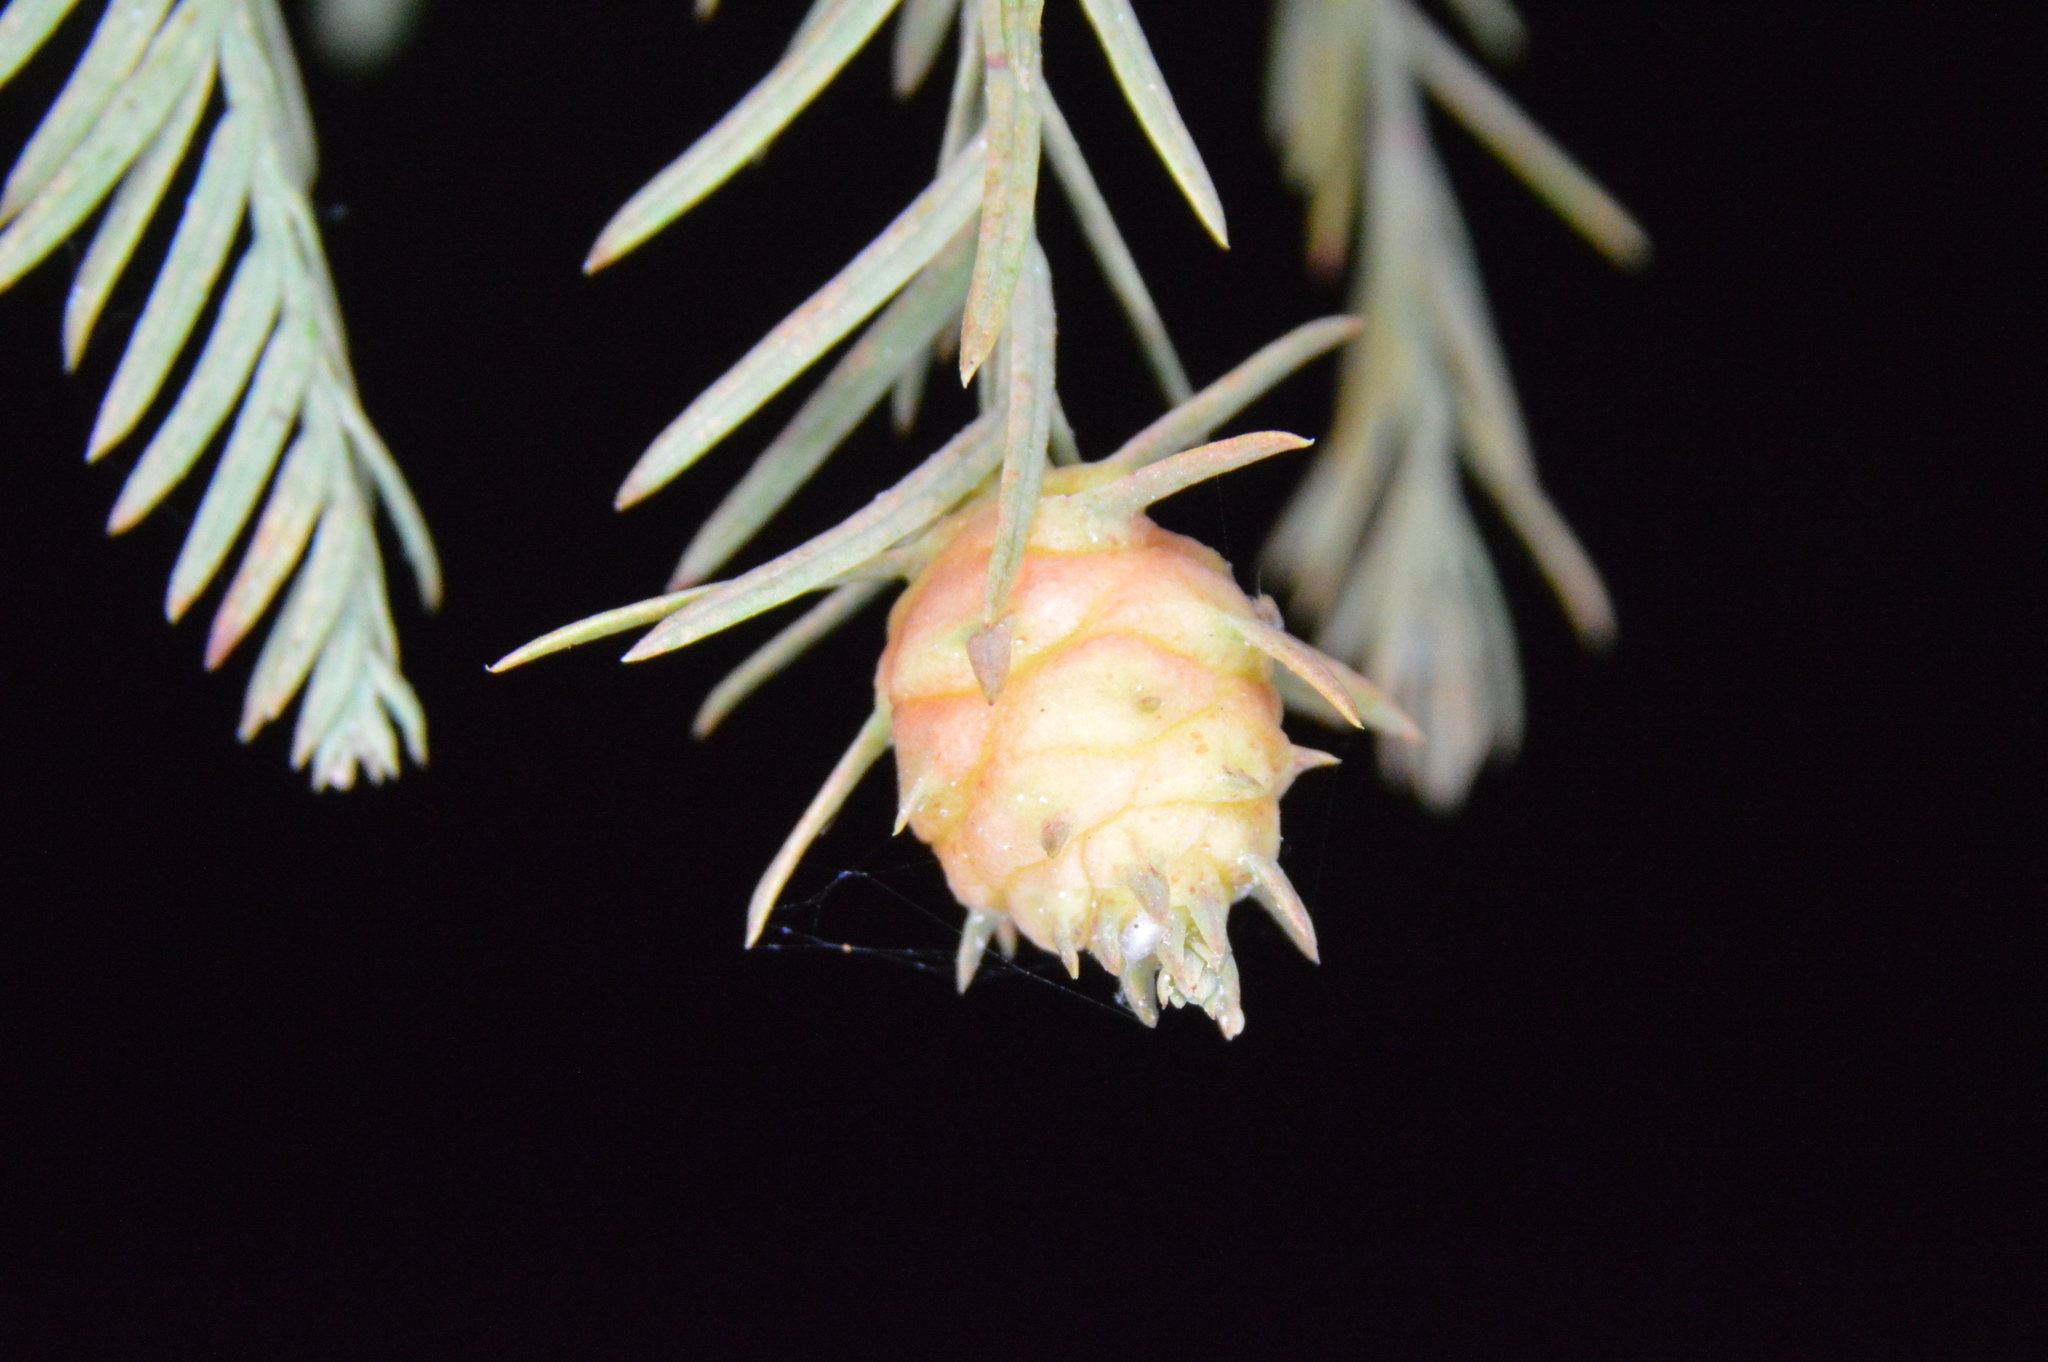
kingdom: Animalia
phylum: Arthropoda
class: Insecta
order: Diptera
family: Cecidomyiidae
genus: Taxodiomyia
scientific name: Taxodiomyia cupressiananassa
